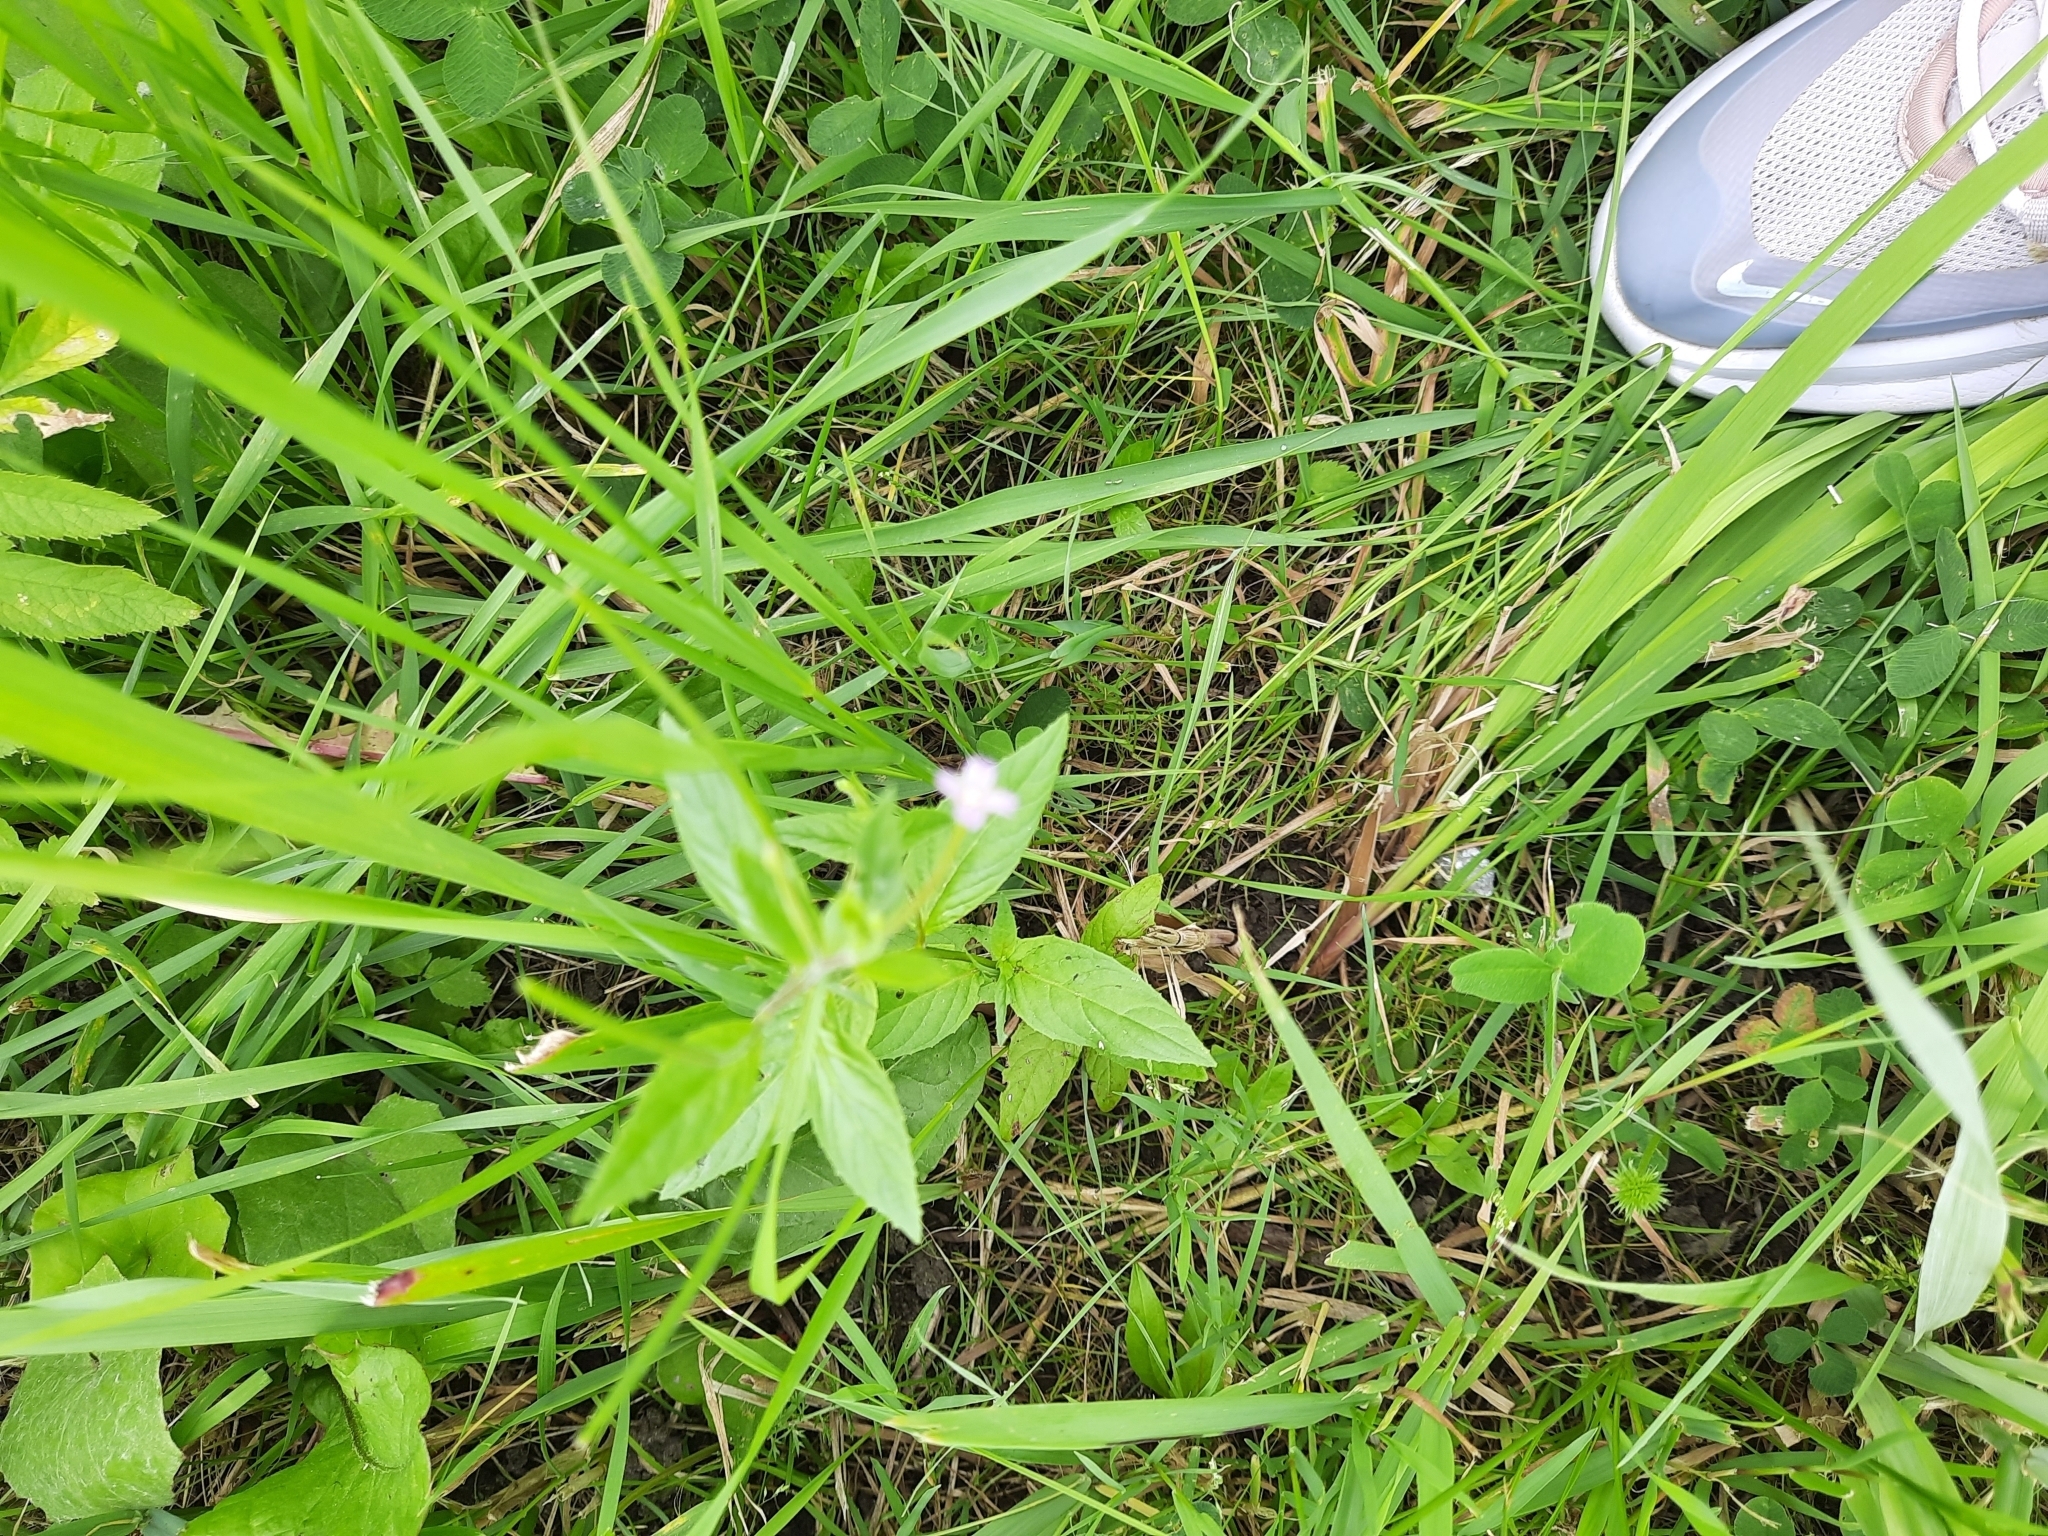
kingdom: Plantae
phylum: Tracheophyta
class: Magnoliopsida
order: Myrtales
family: Onagraceae
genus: Epilobium
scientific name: Epilobium ciliatum
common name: American willowherb
